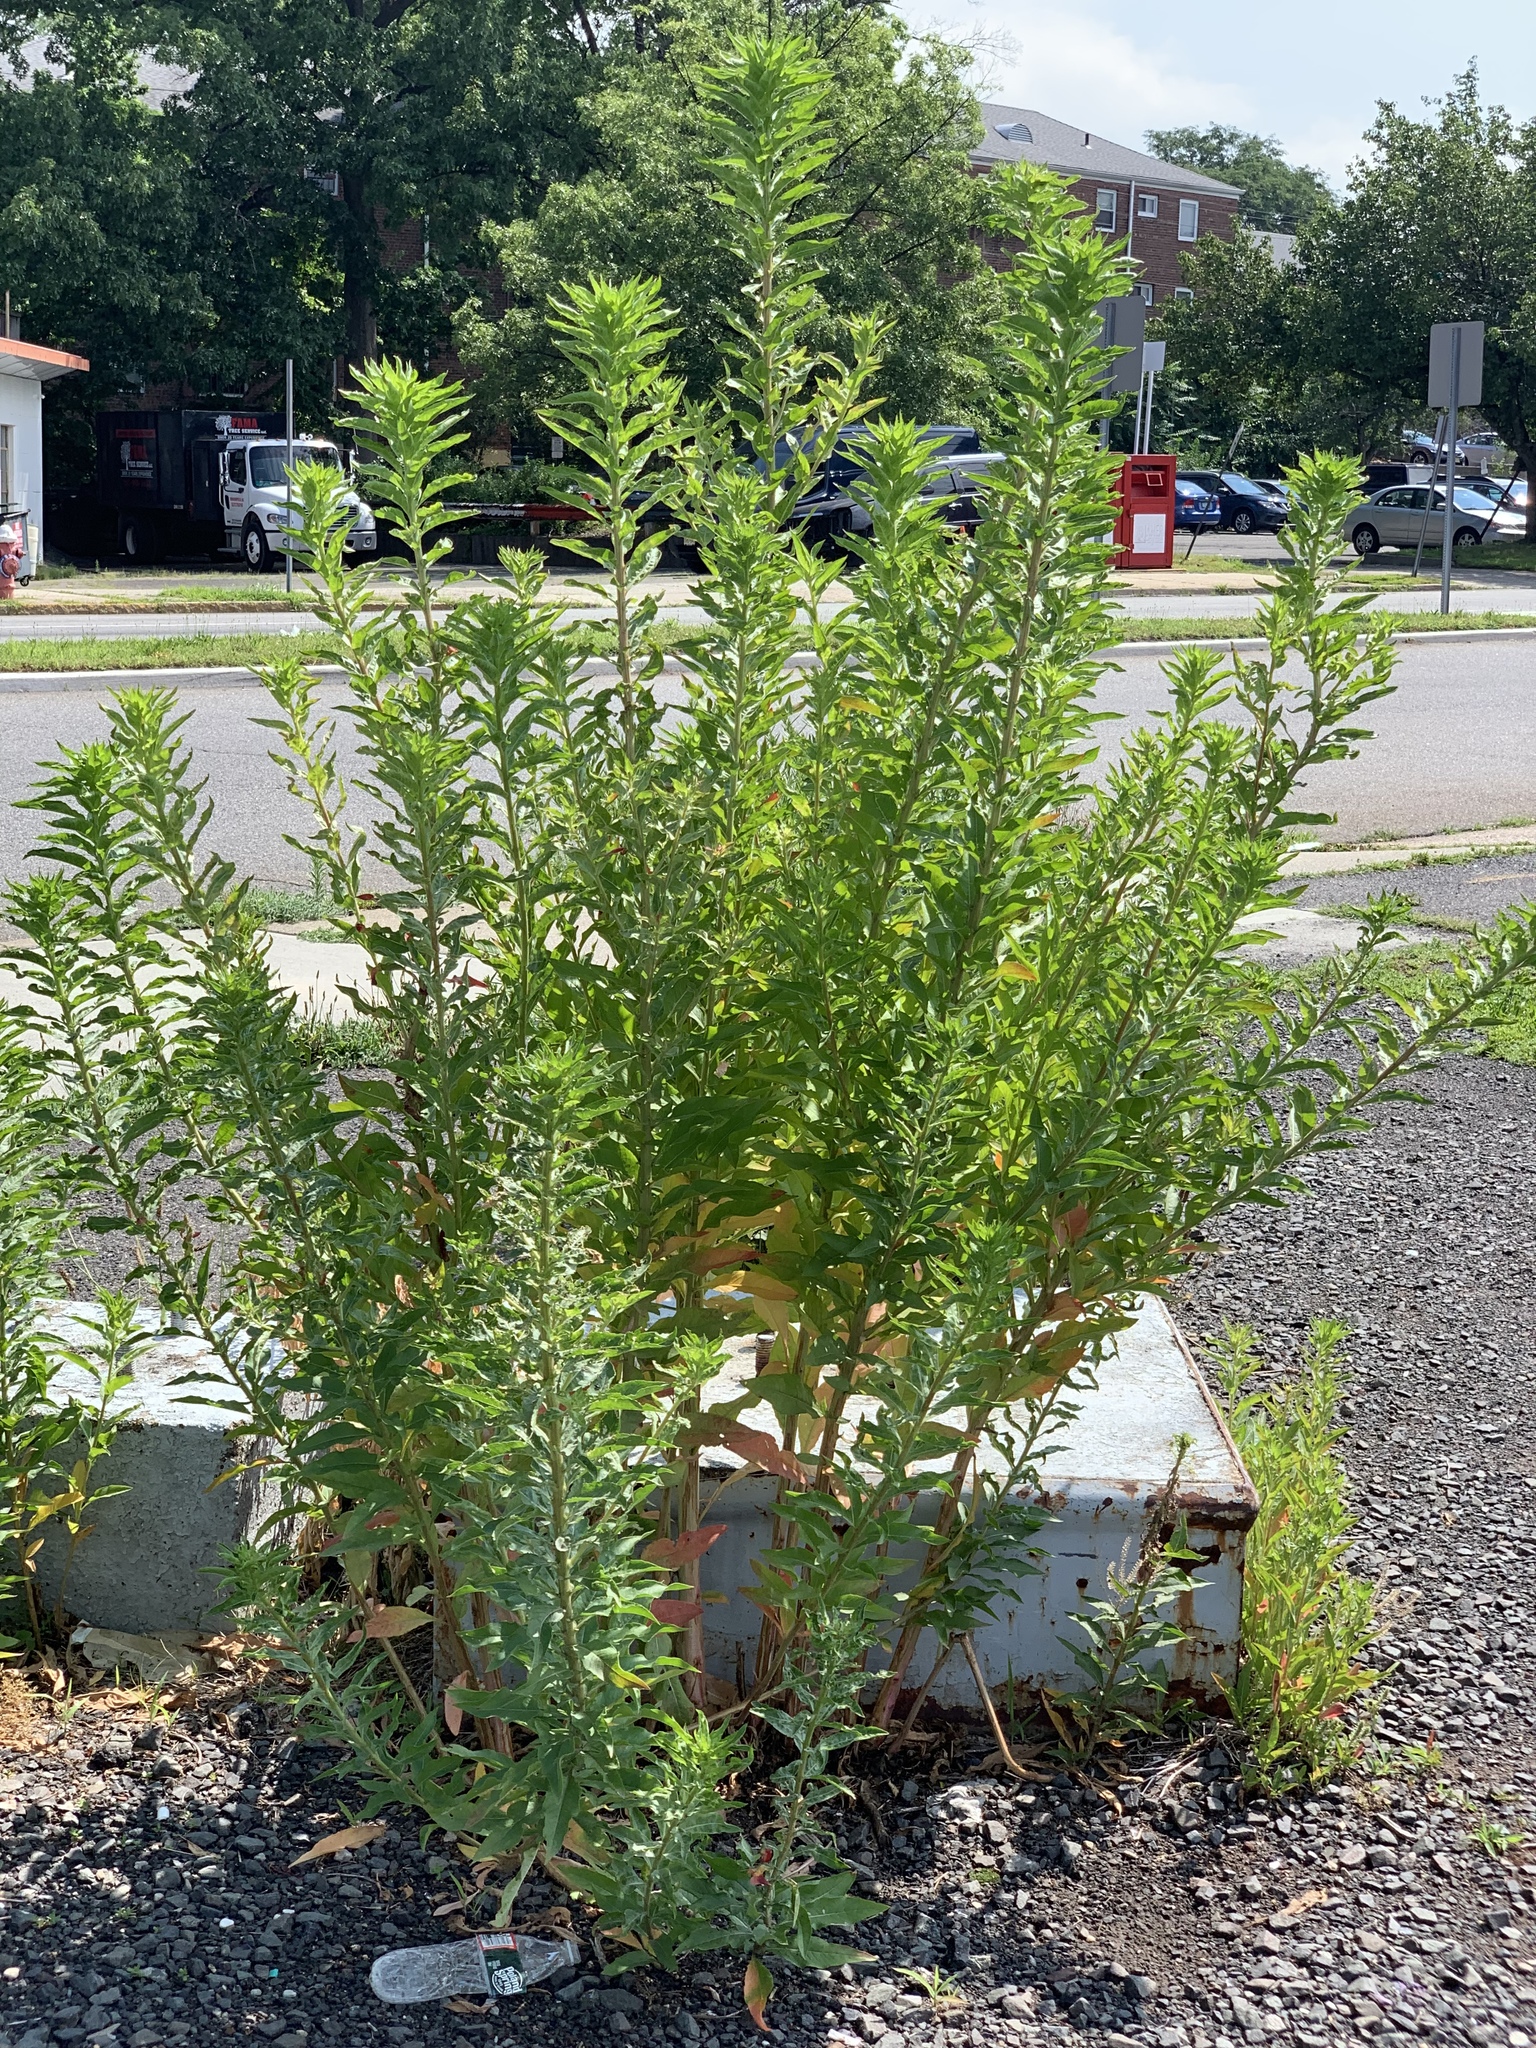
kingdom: Plantae
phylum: Tracheophyta
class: Magnoliopsida
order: Myrtales
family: Onagraceae
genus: Oenothera
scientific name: Oenothera biennis
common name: Common evening-primrose
